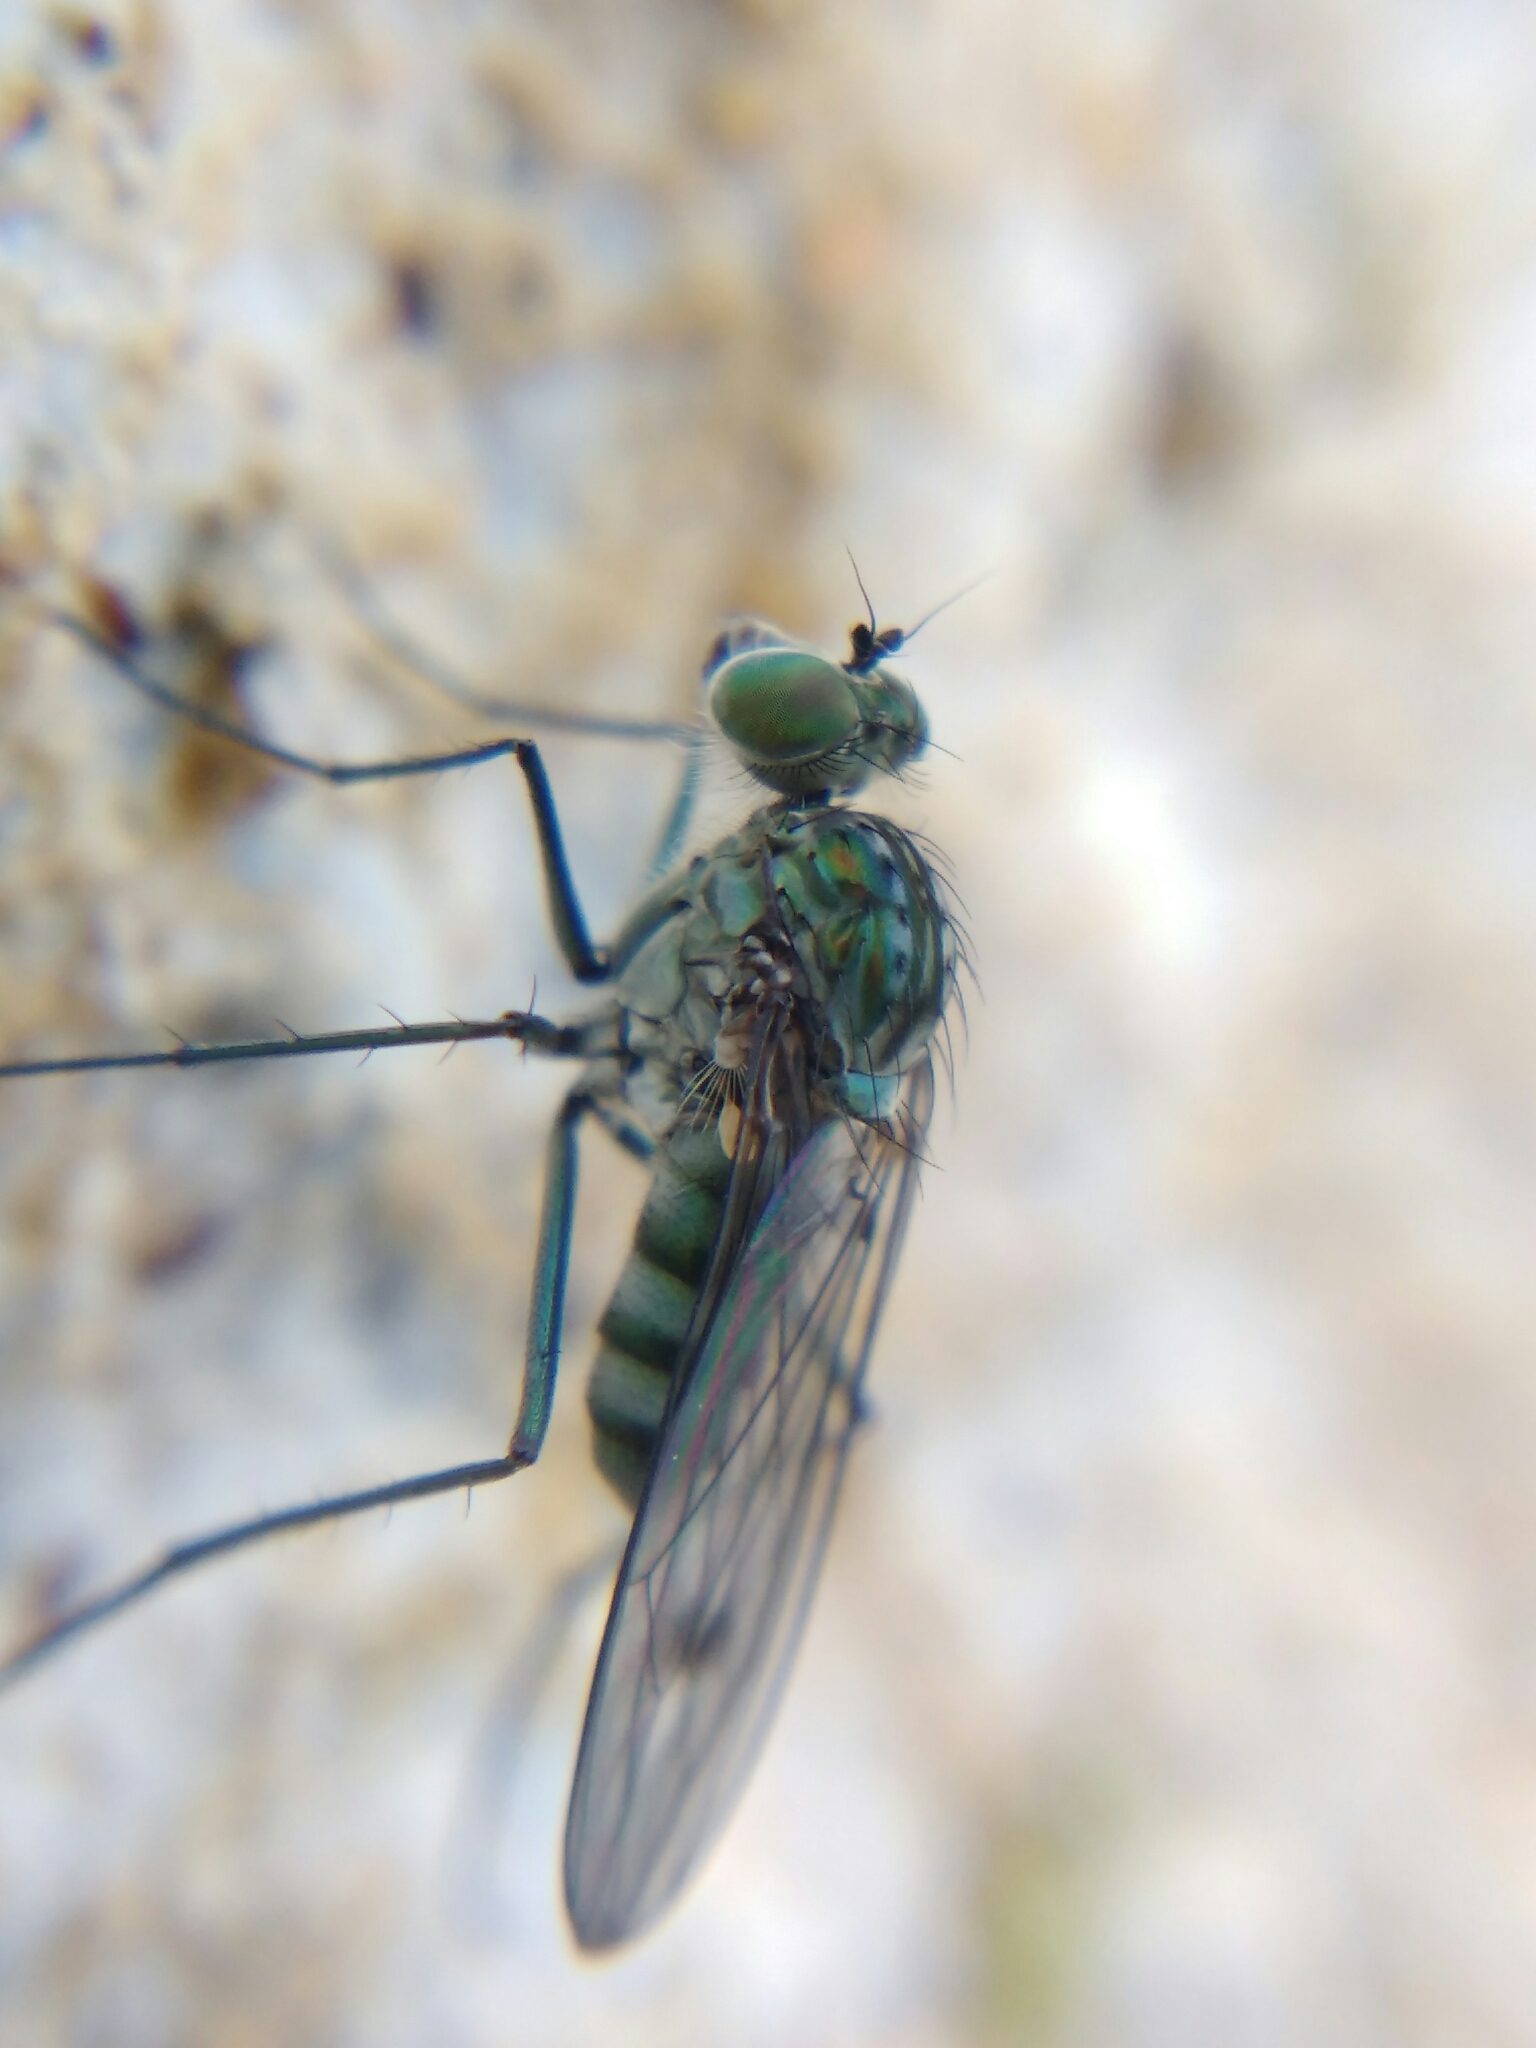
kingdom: Animalia
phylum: Arthropoda
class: Insecta
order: Diptera
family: Dolichopodidae
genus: Liancalus
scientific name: Liancalus virens
